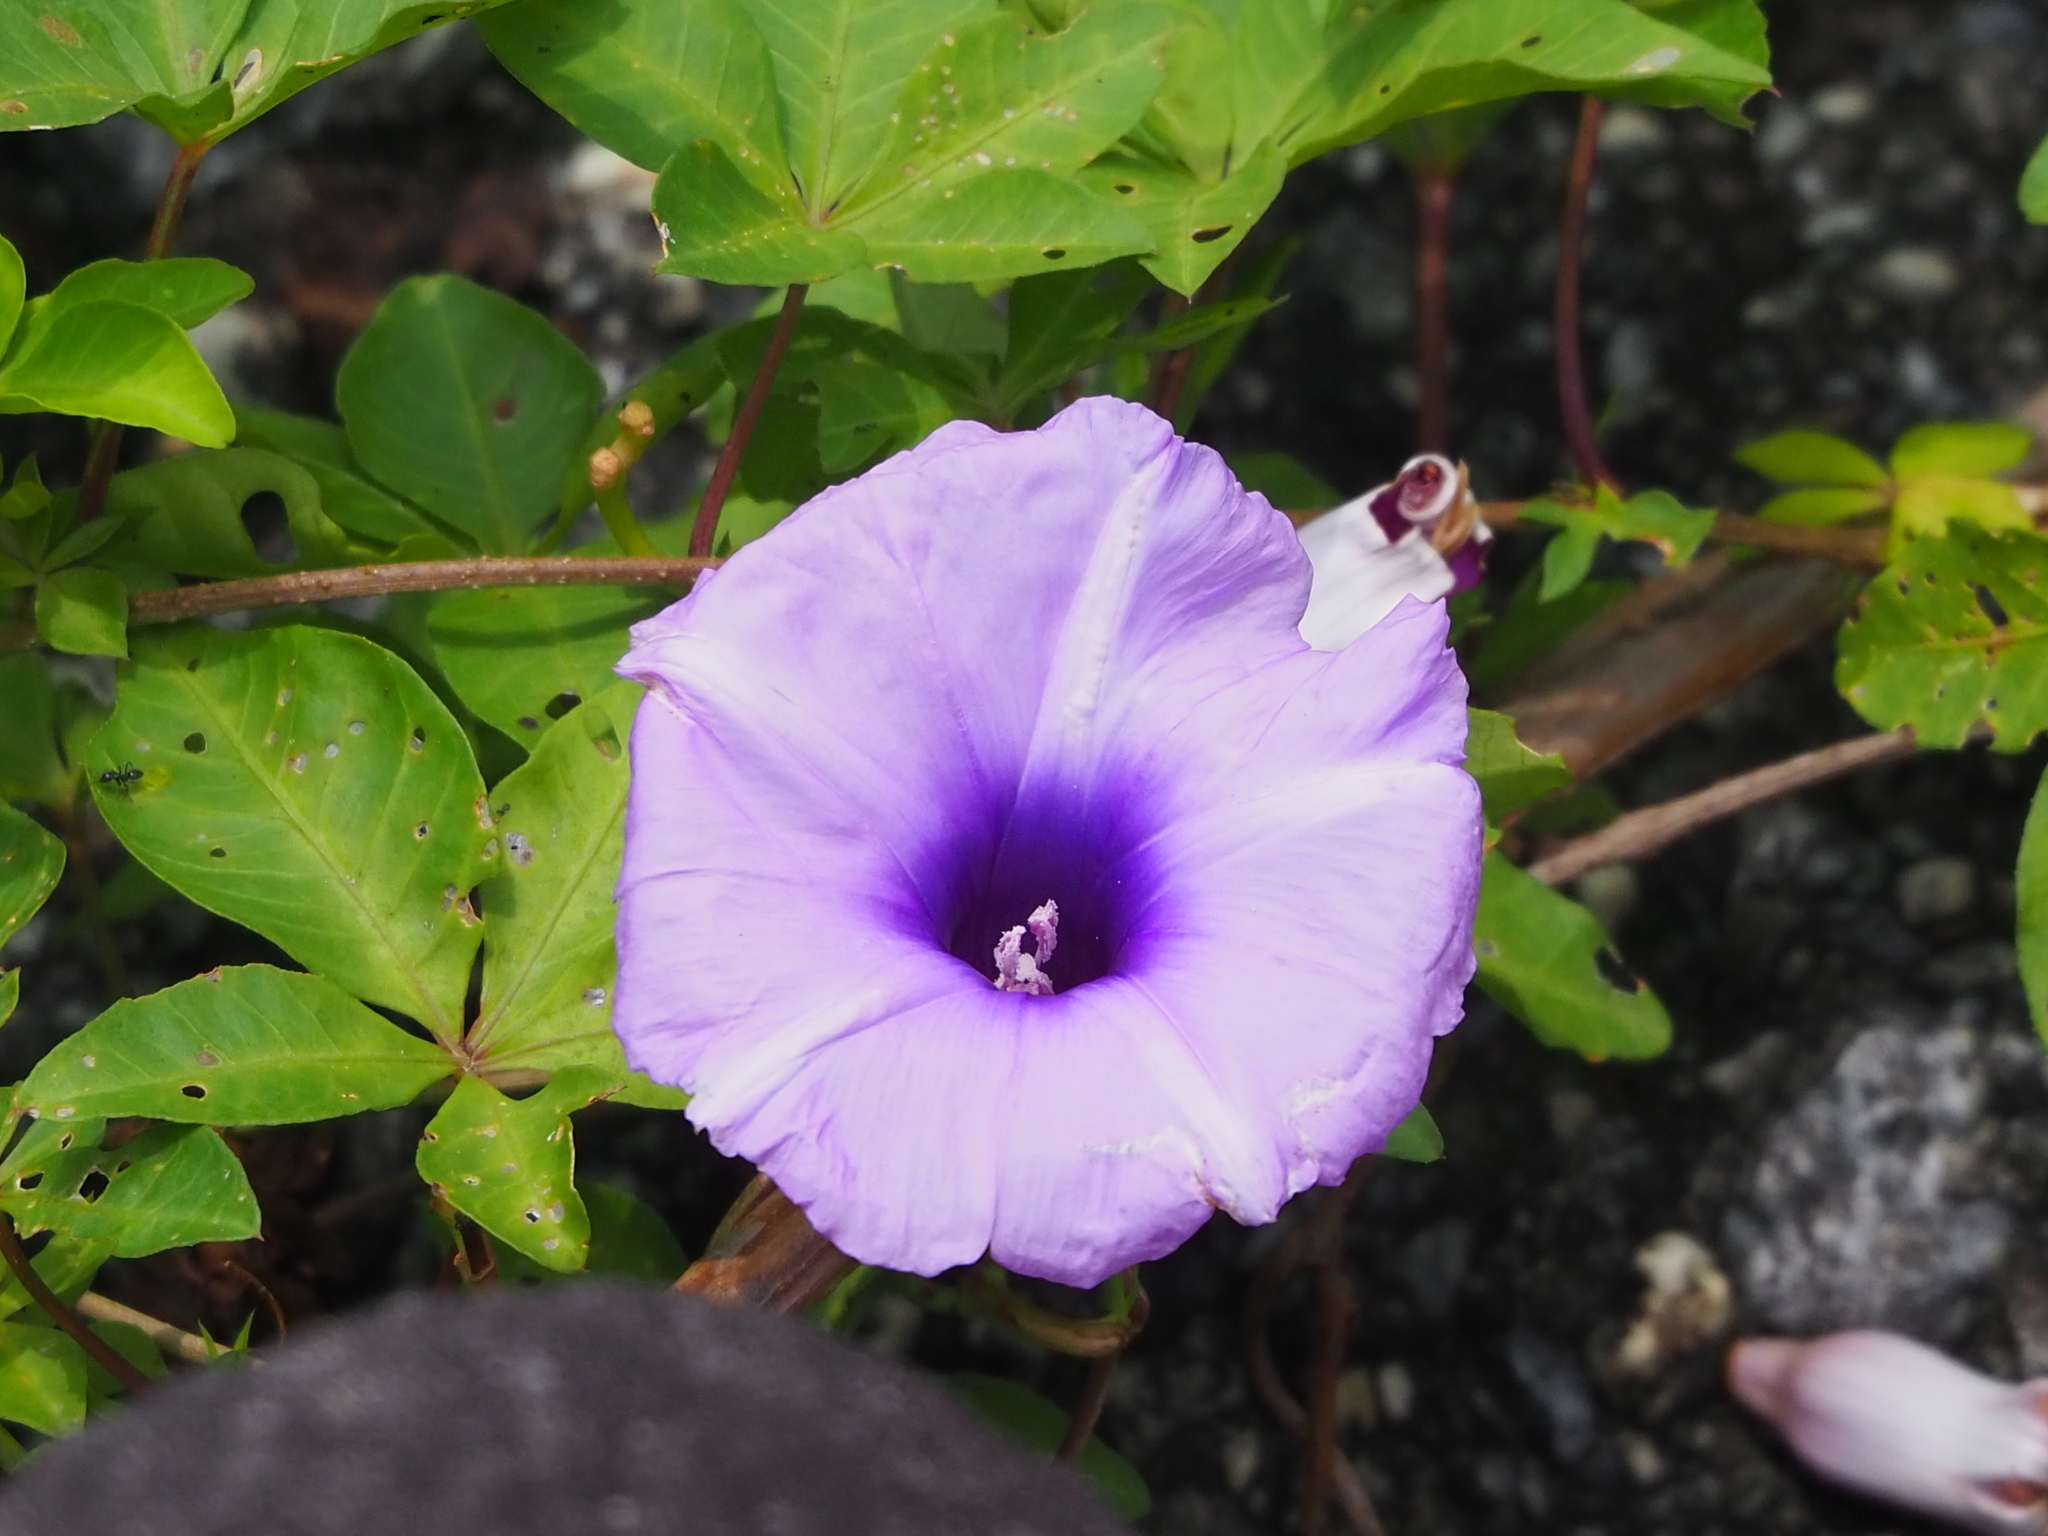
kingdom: Plantae
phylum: Tracheophyta
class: Magnoliopsida
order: Solanales
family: Convolvulaceae
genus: Ipomoea
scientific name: Ipomoea cairica
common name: Mile a minute vine
